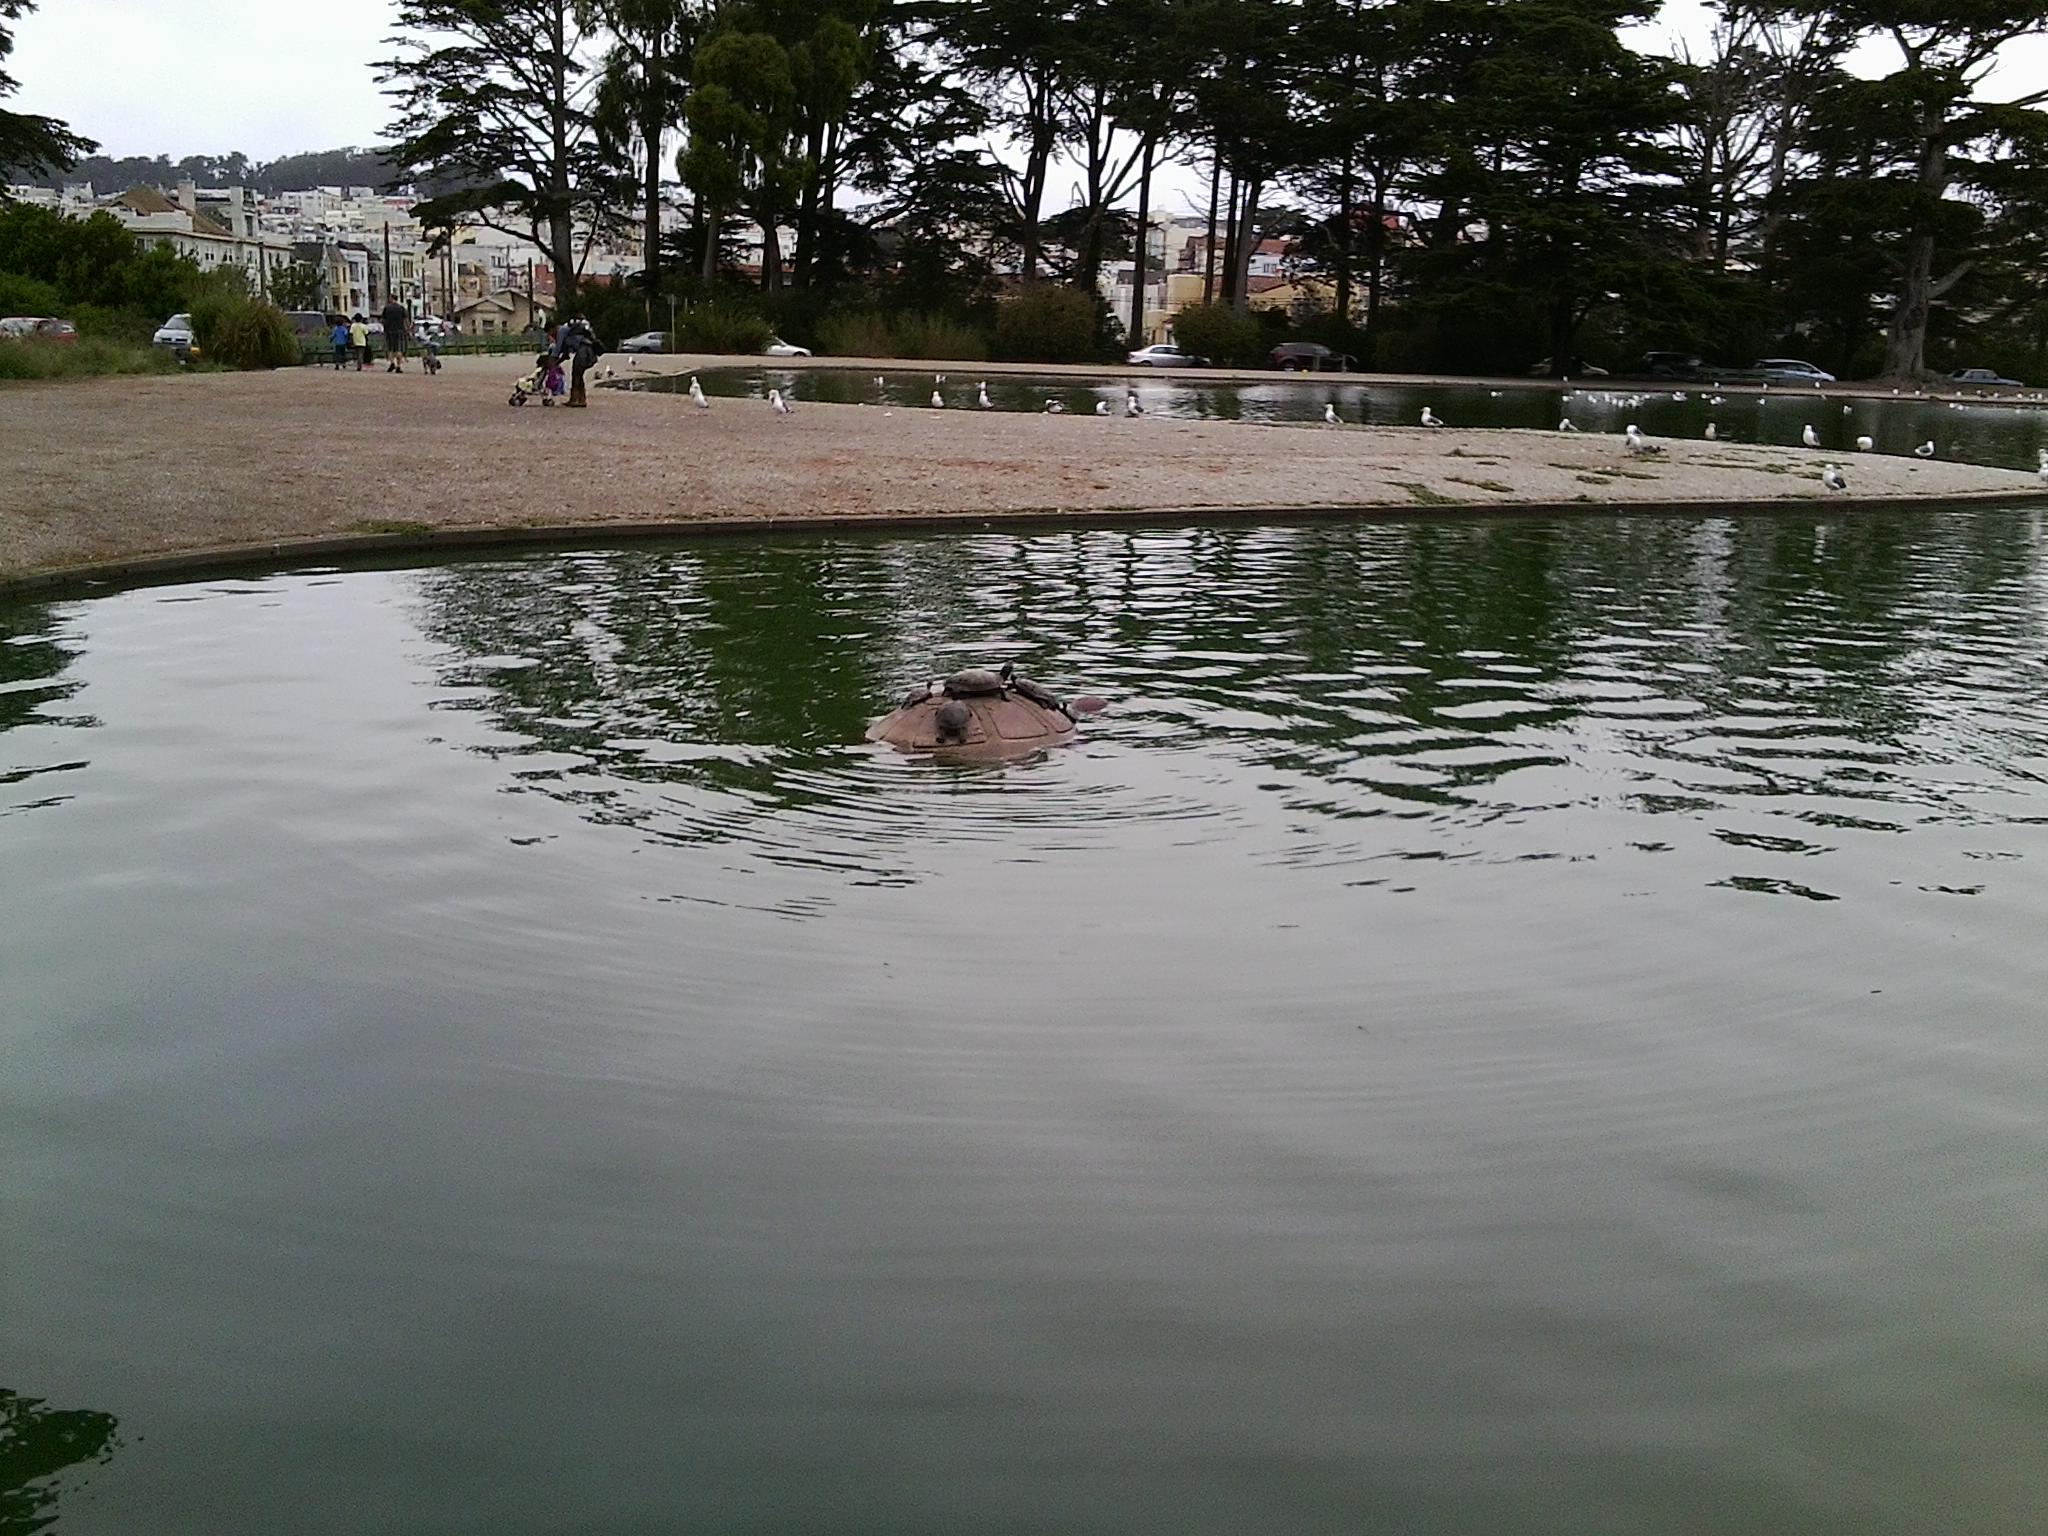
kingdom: Animalia
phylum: Chordata
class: Testudines
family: Emydidae
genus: Trachemys
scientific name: Trachemys scripta
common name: Slider
